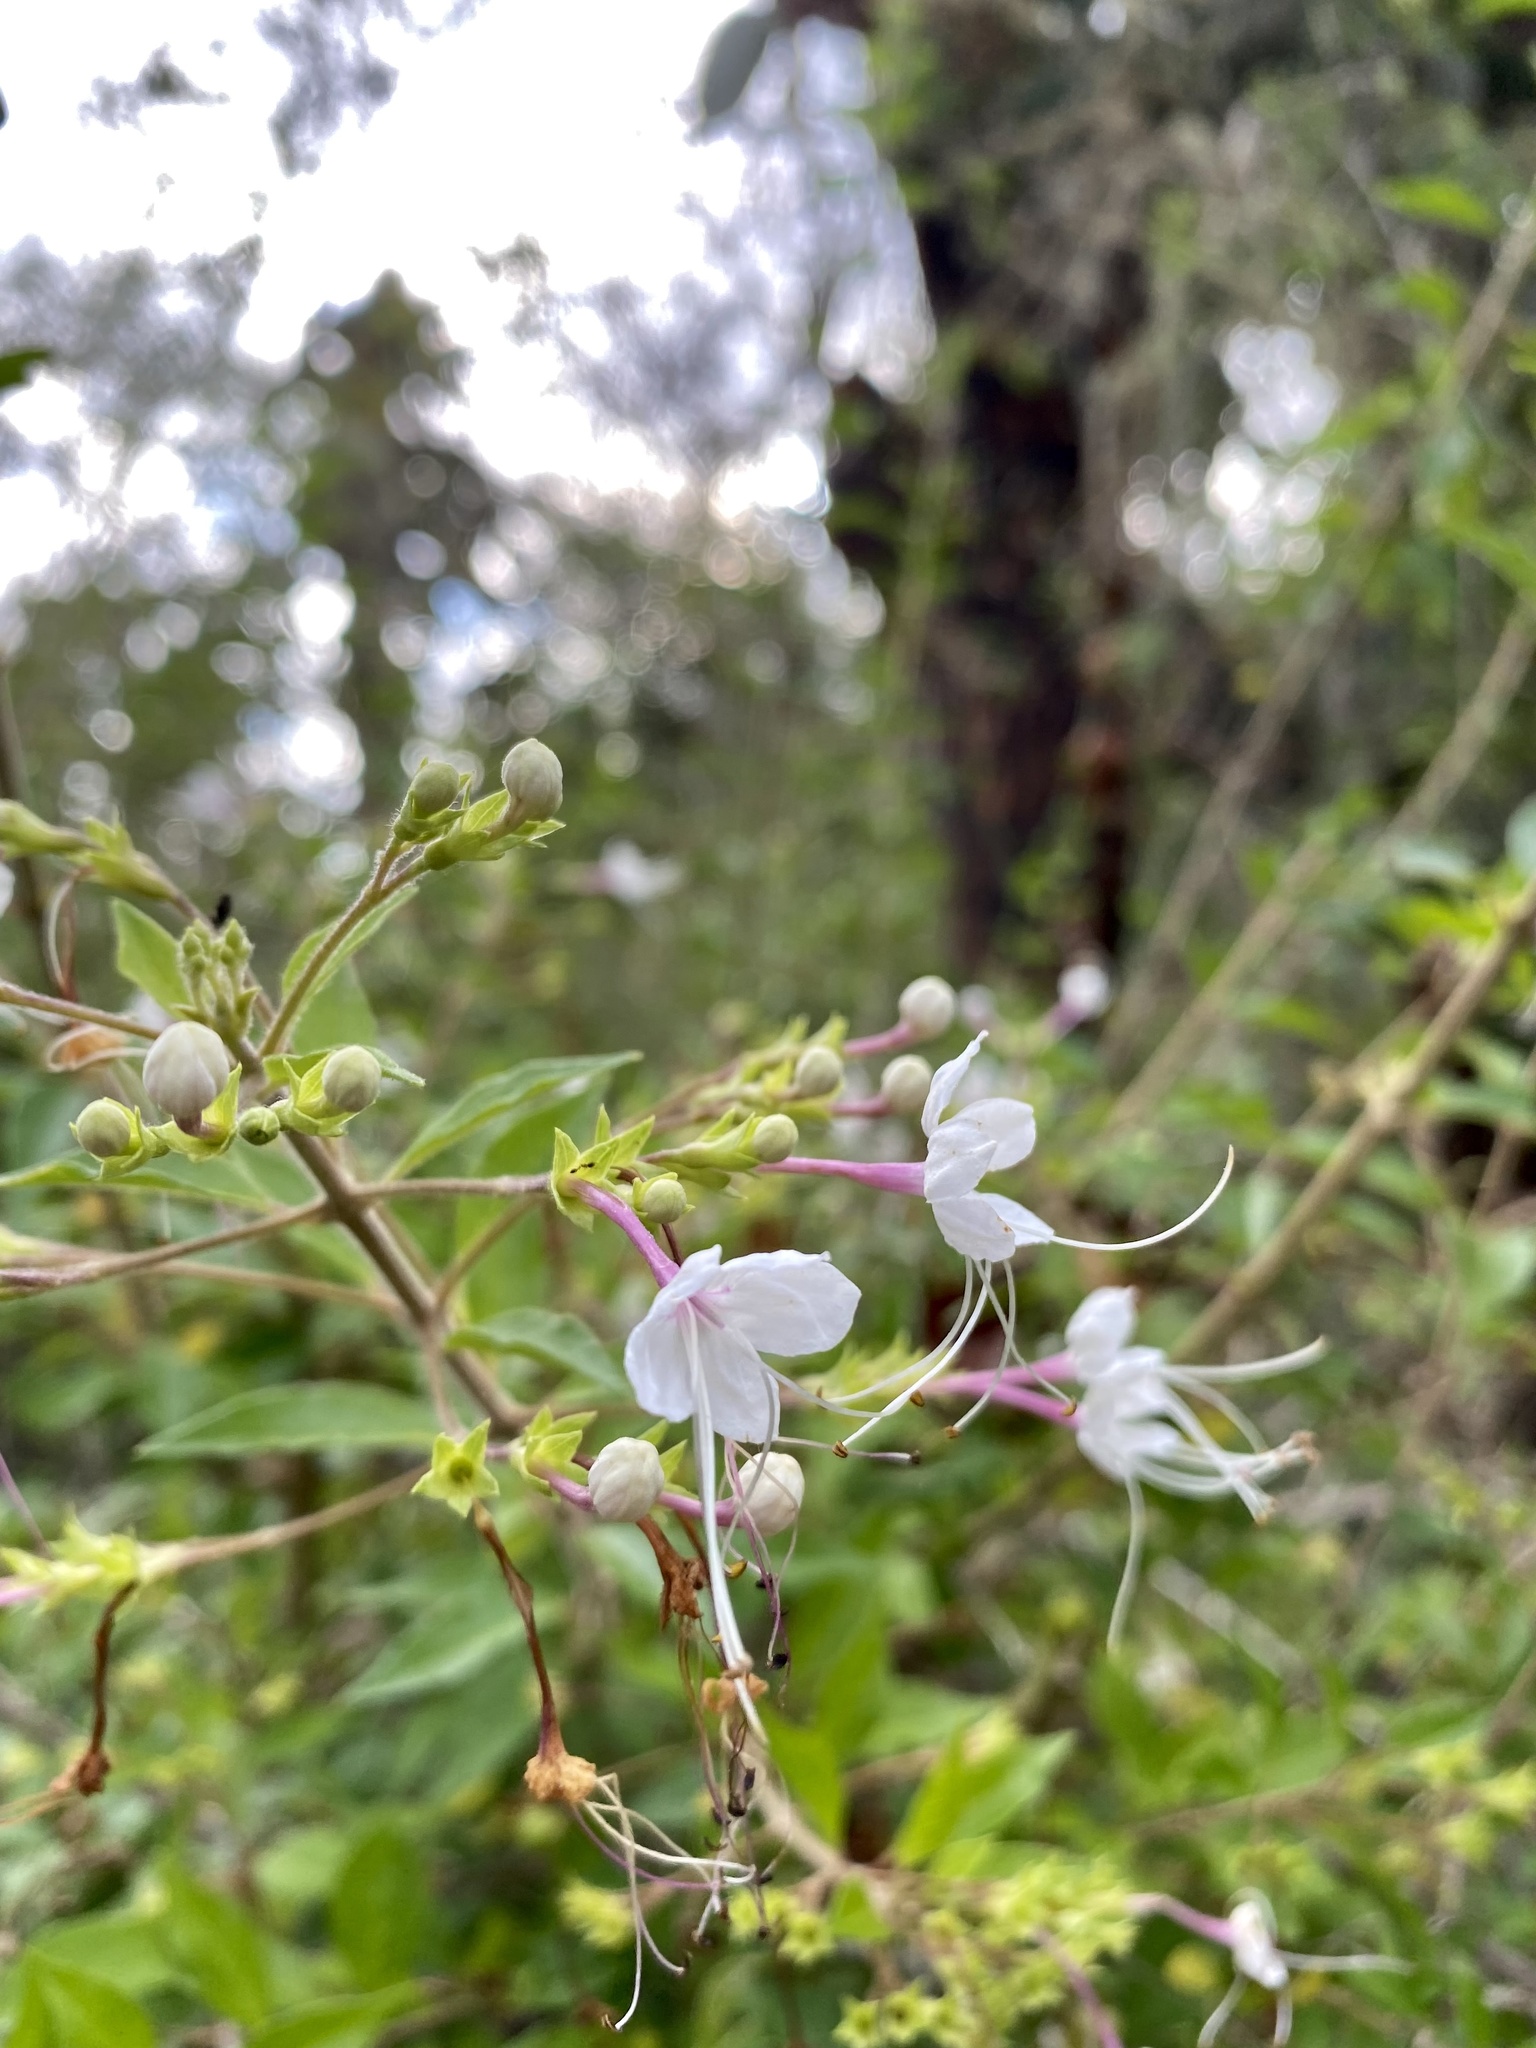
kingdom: Plantae
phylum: Tracheophyta
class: Magnoliopsida
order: Lamiales
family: Lamiaceae
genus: Volkameria
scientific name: Volkameria mollis
